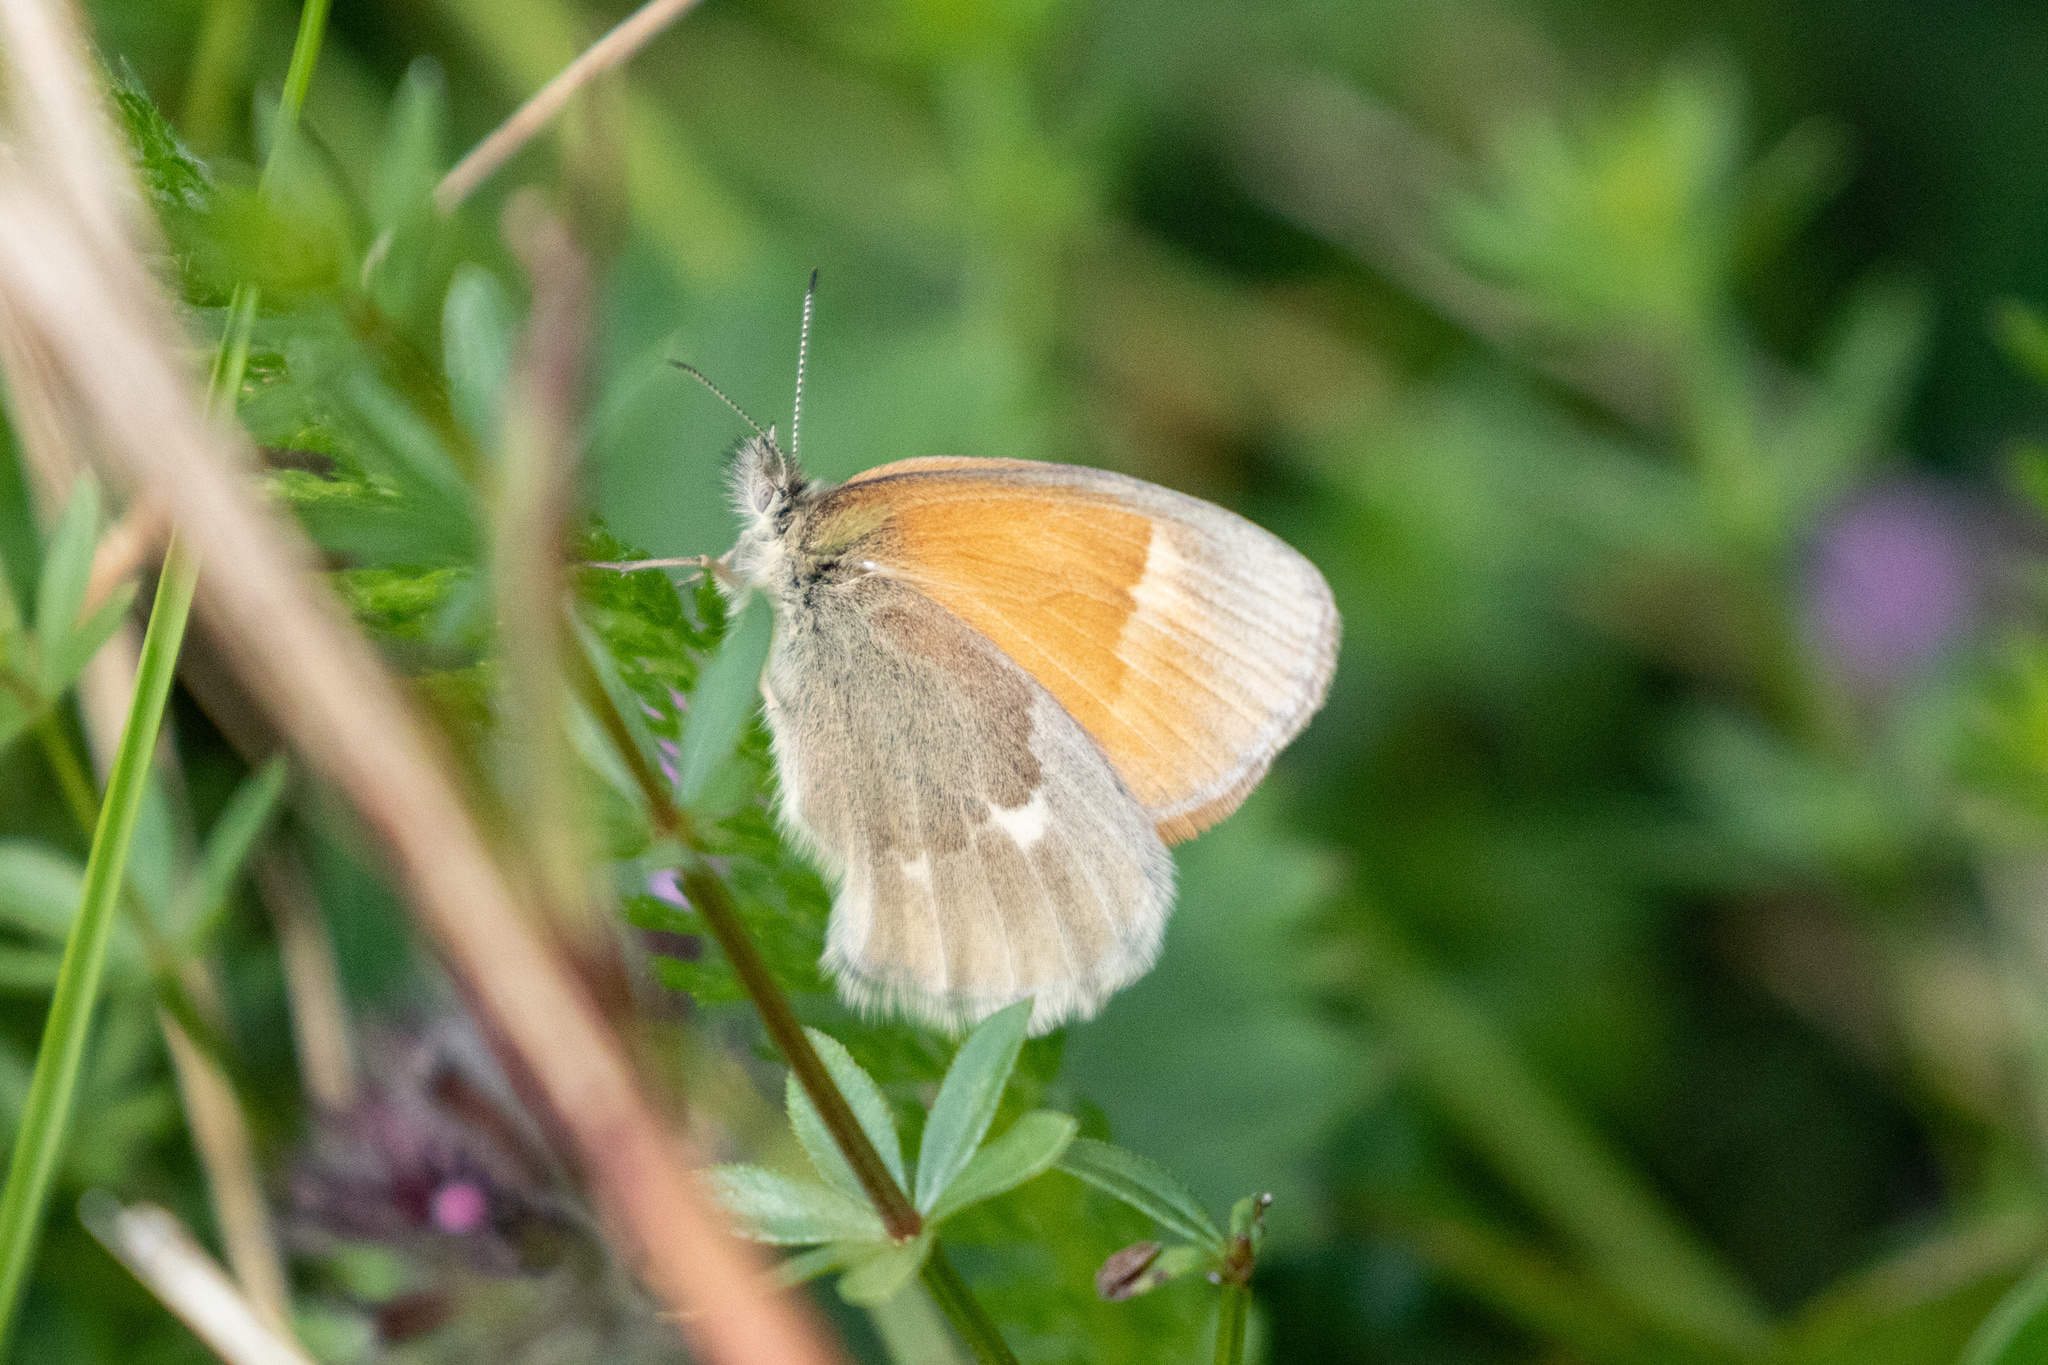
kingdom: Animalia
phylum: Arthropoda
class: Insecta
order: Lepidoptera
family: Nymphalidae
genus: Coenonympha
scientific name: Coenonympha california
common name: Common ringlet
